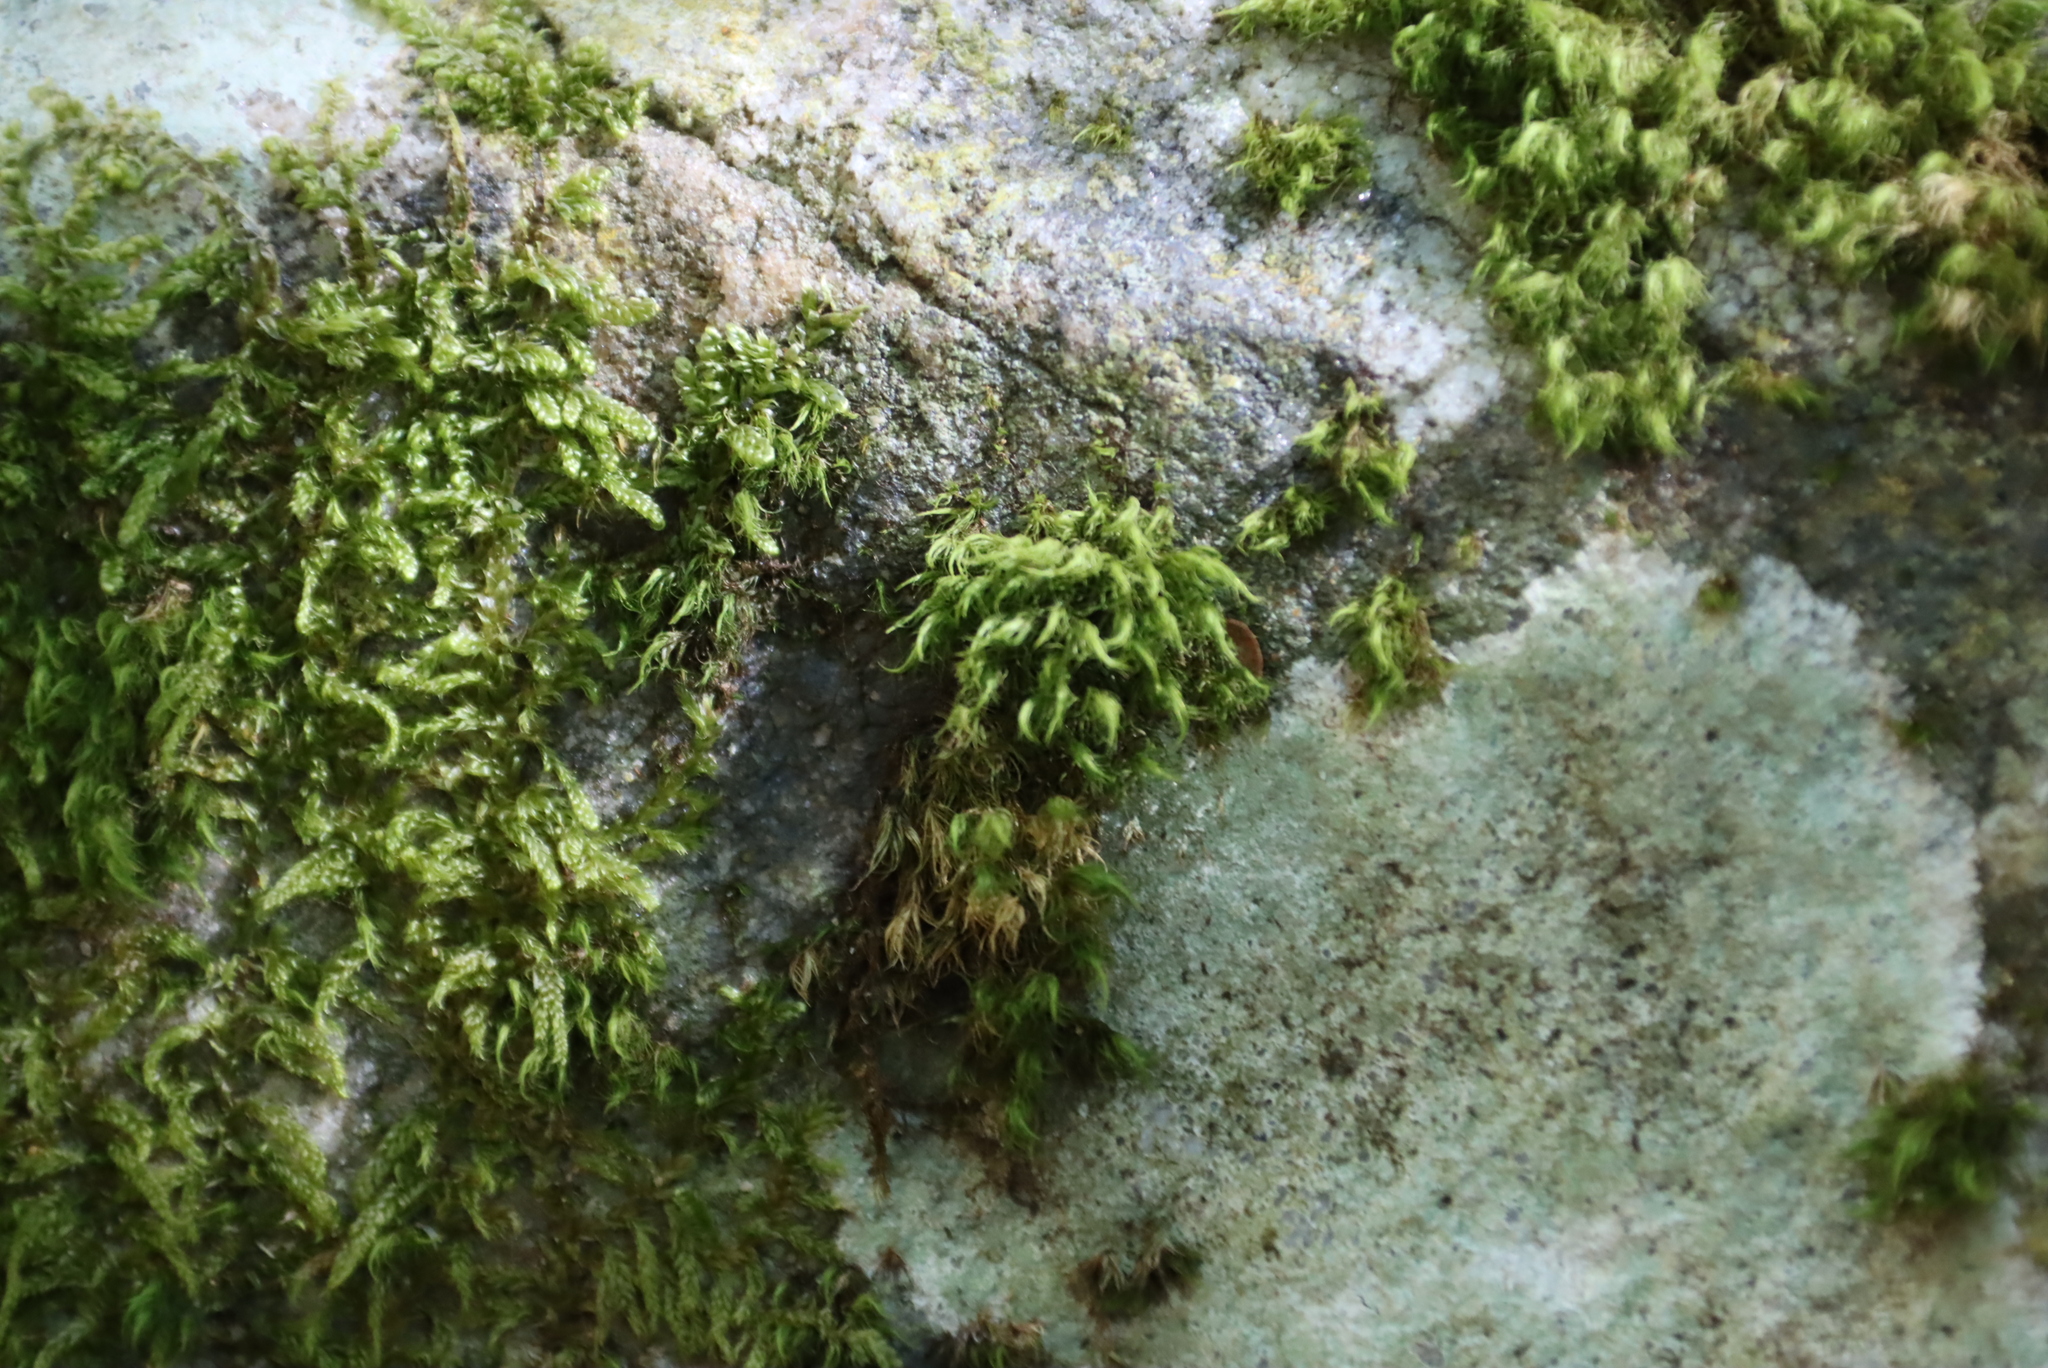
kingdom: Plantae
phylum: Bryophyta
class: Bryopsida
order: Dicranales
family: Dicranaceae
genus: Leucoloma
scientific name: Leucoloma sprengelianum
